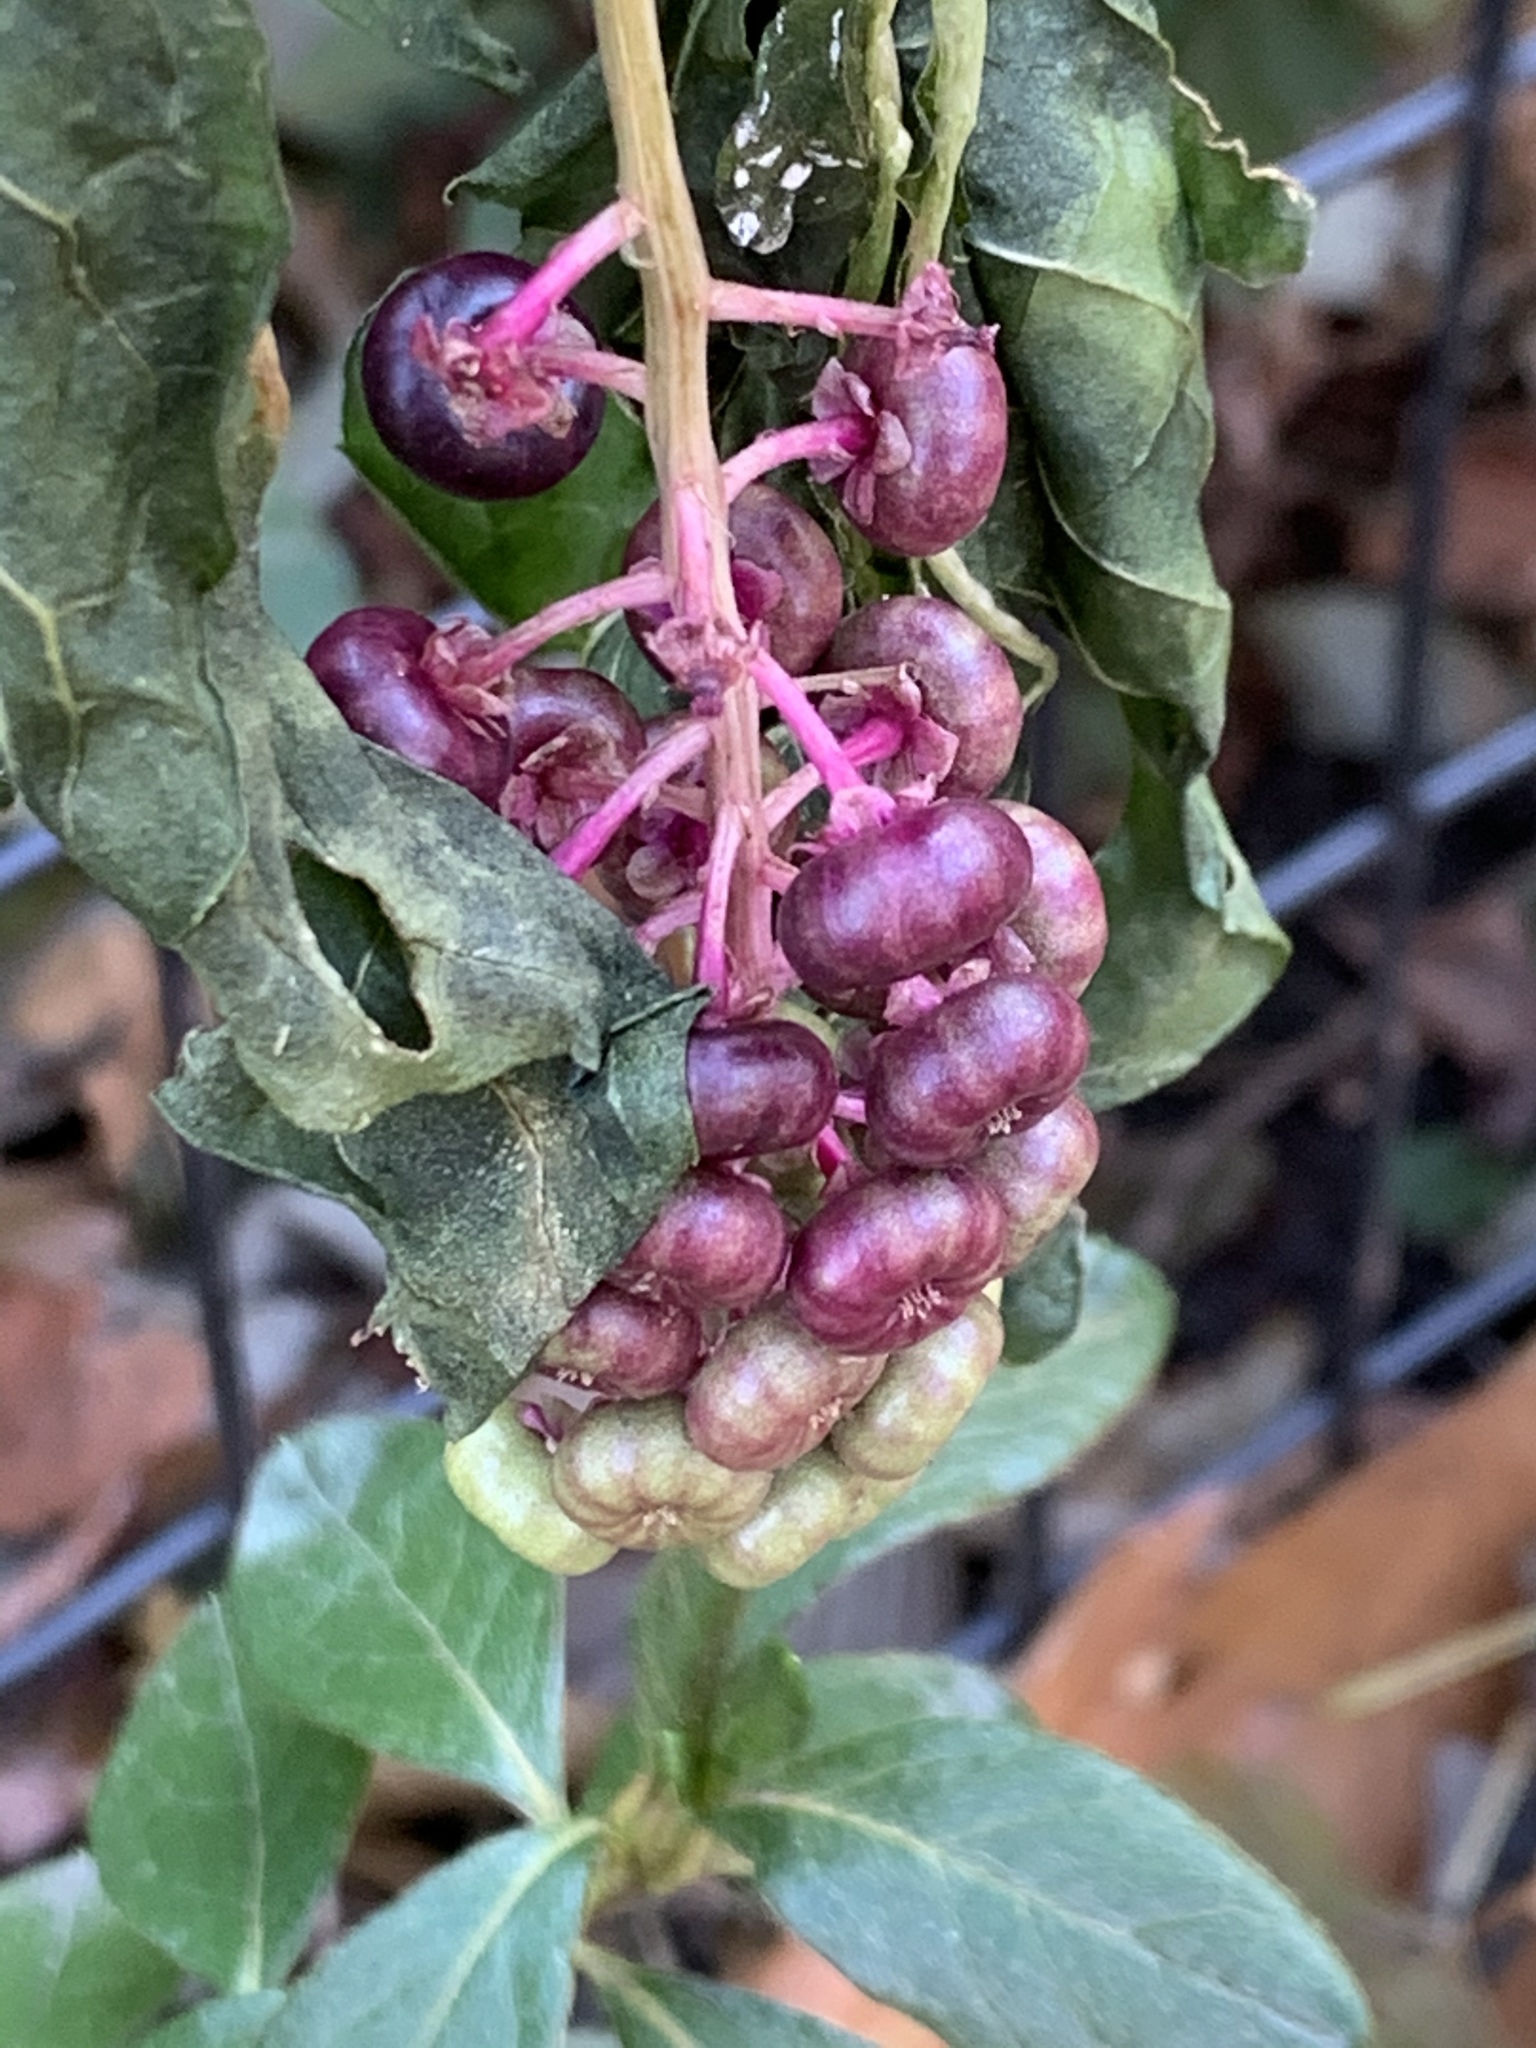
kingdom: Plantae
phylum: Tracheophyta
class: Magnoliopsida
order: Caryophyllales
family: Phytolaccaceae
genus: Phytolacca
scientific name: Phytolacca americana
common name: American pokeweed
